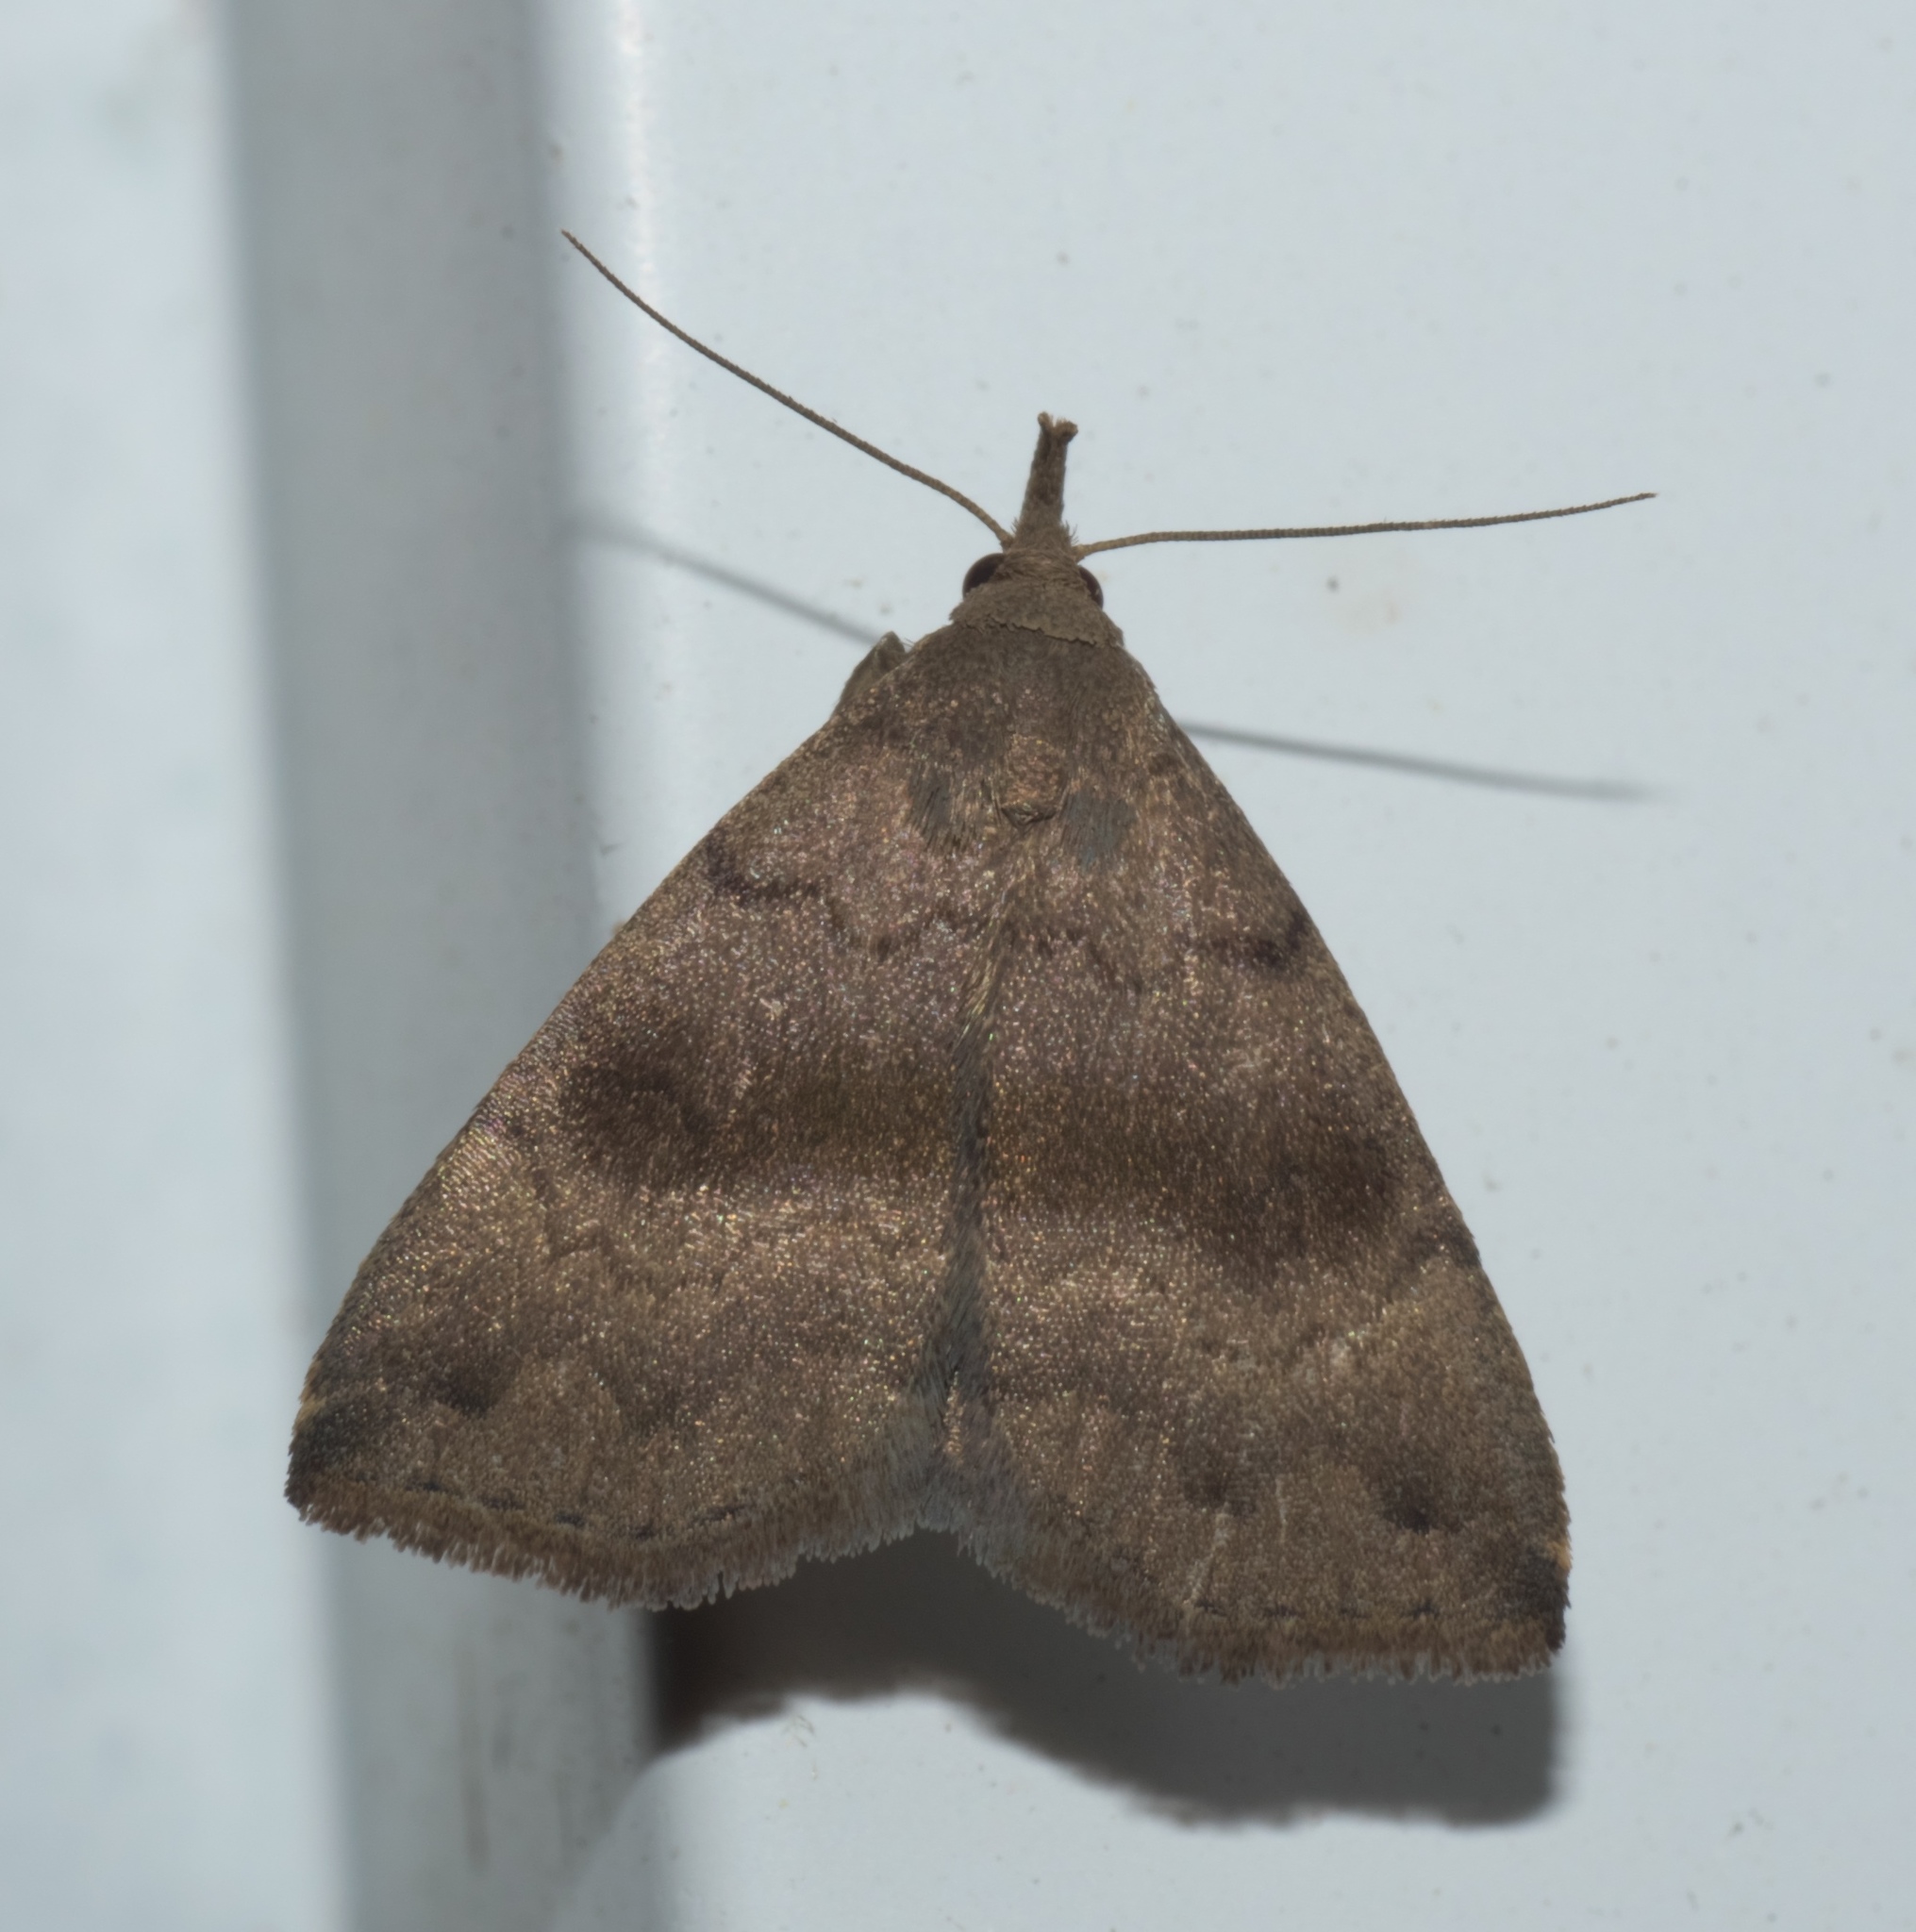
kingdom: Animalia
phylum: Arthropoda
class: Insecta
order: Lepidoptera
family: Erebidae
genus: Phalaenostola
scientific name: Phalaenostola eumelusalis
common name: Dark phalaenostola moth
